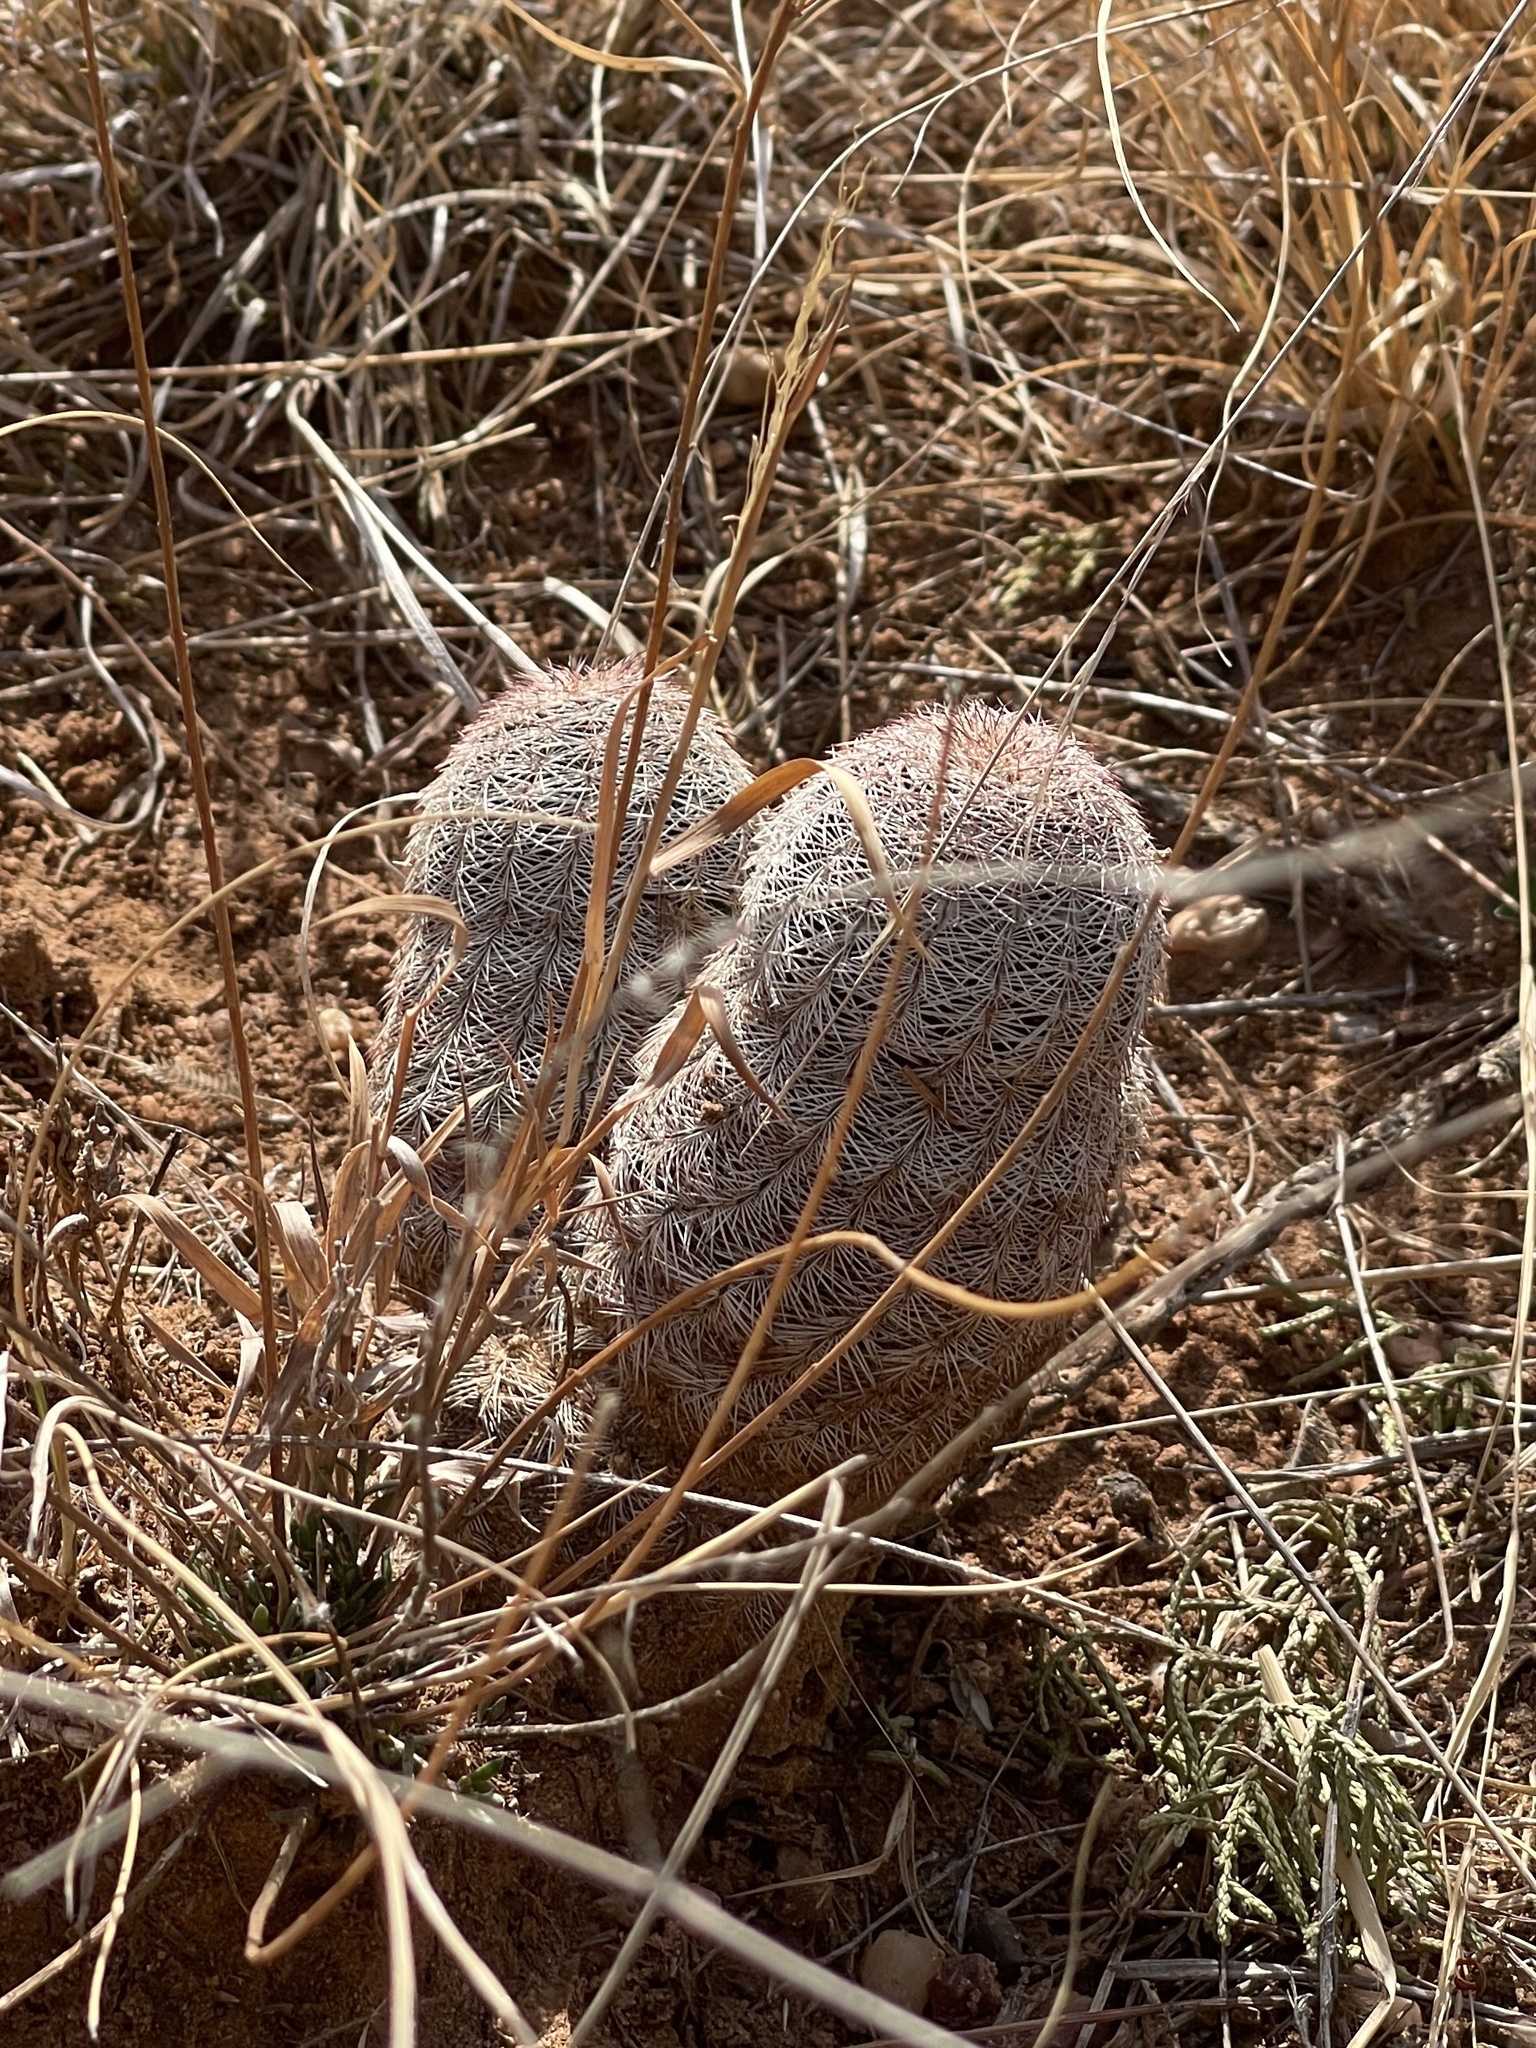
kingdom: Plantae
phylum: Tracheophyta
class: Magnoliopsida
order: Caryophyllales
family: Cactaceae
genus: Echinocereus
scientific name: Echinocereus reichenbachii
